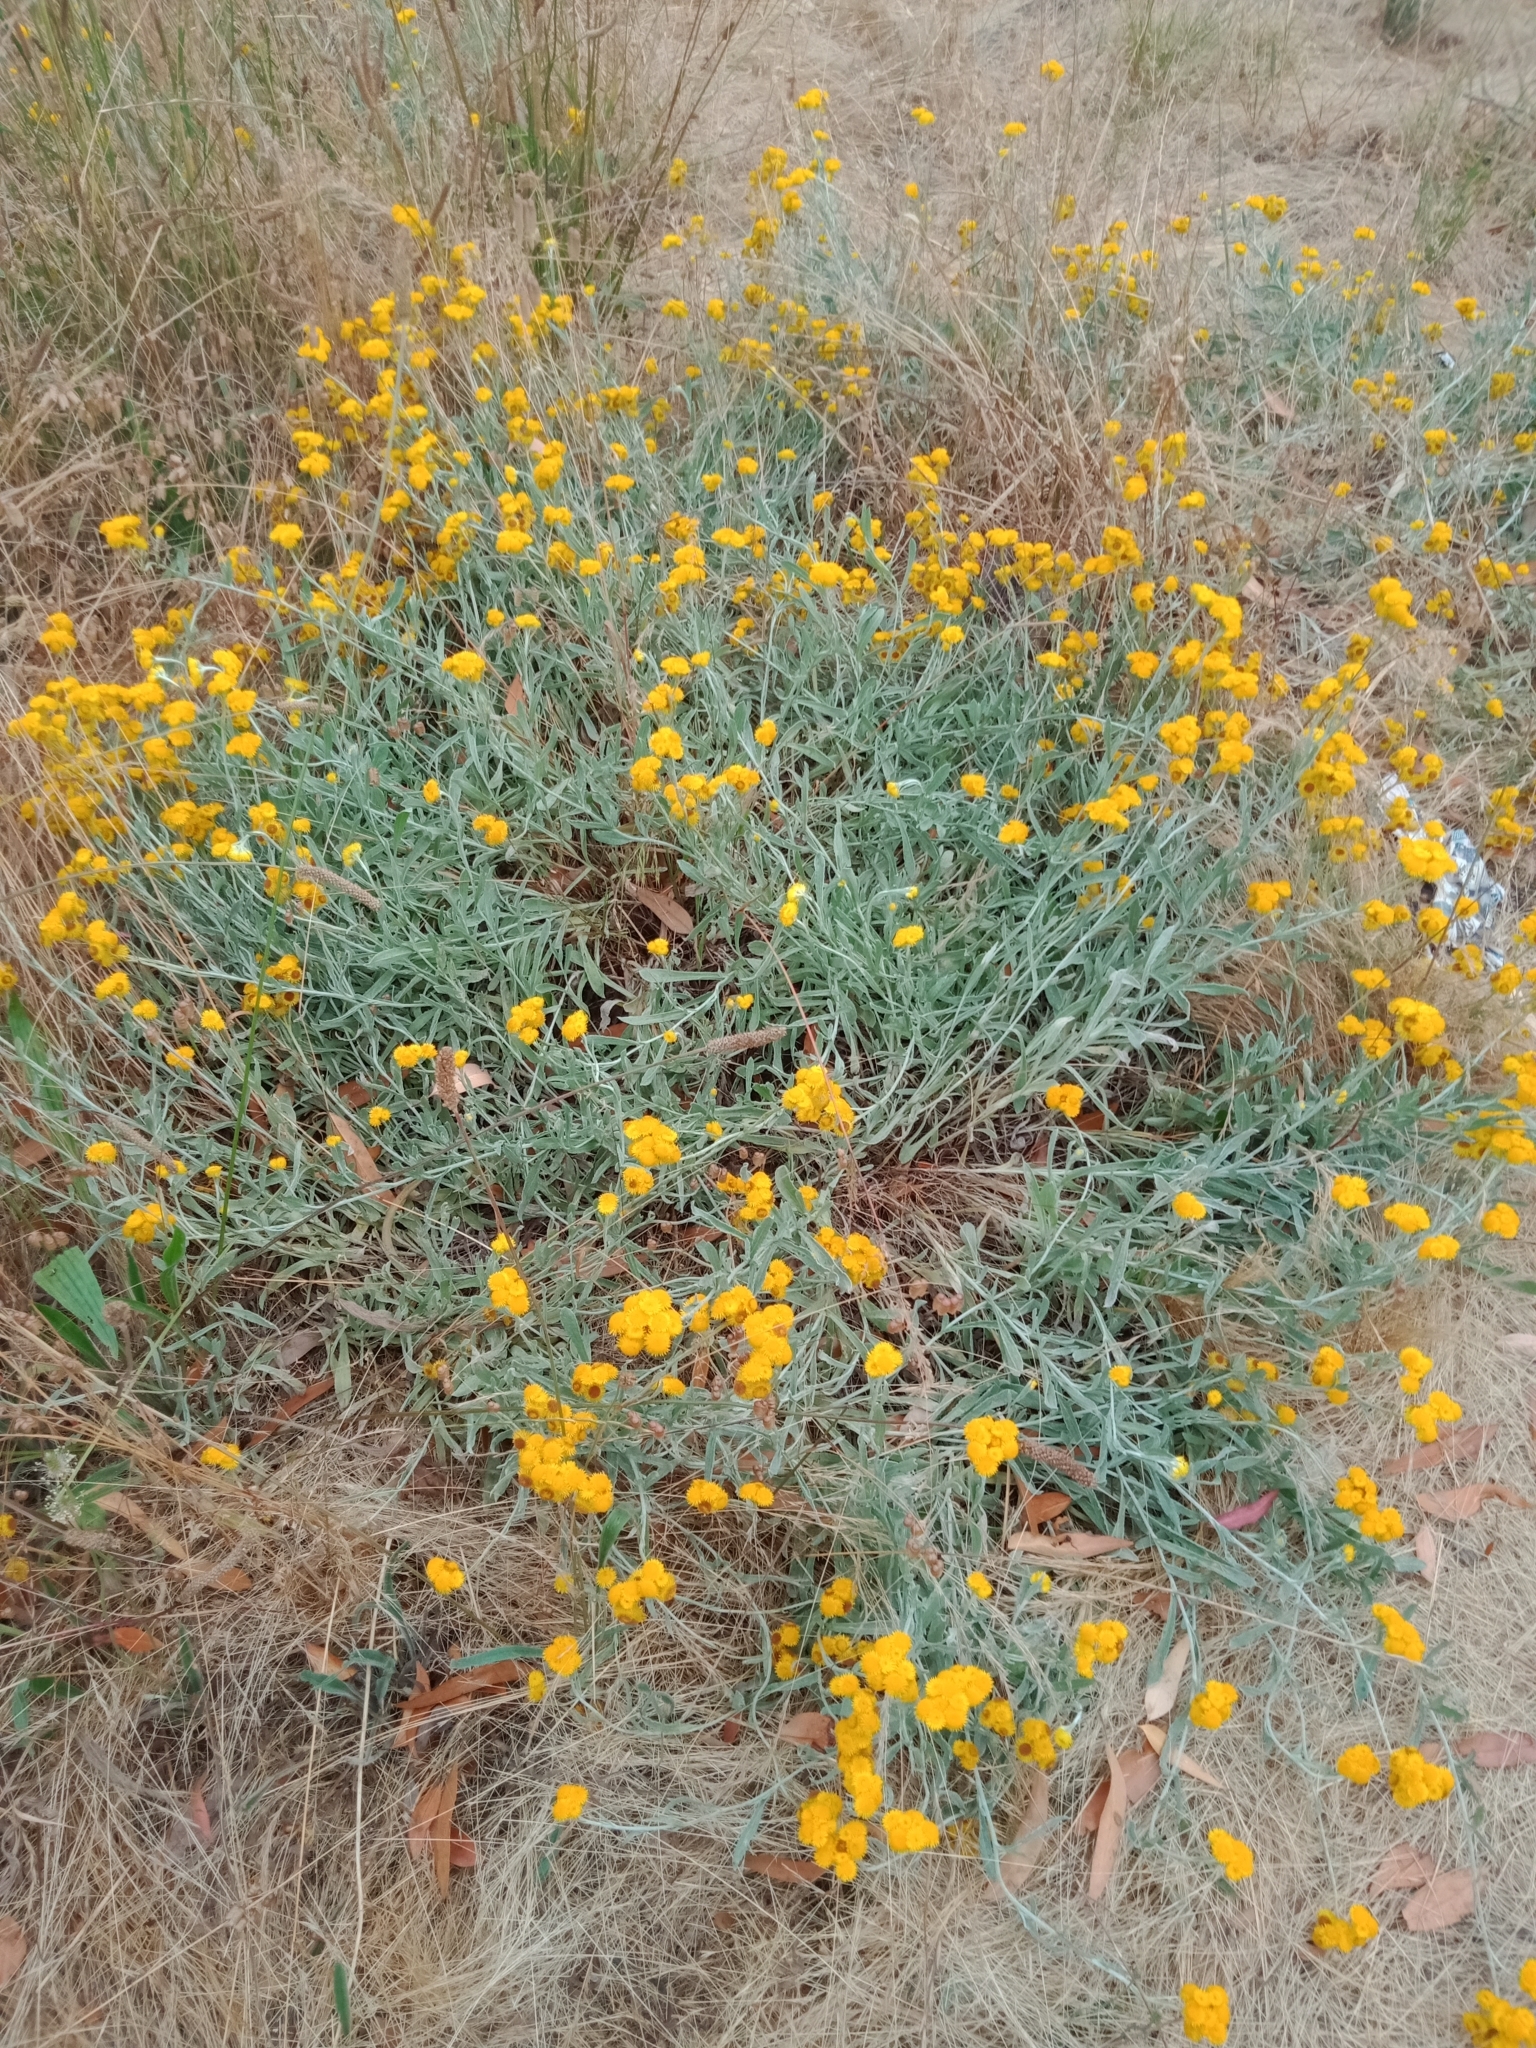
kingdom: Plantae
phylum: Tracheophyta
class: Magnoliopsida
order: Asterales
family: Asteraceae
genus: Chrysocephalum
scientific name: Chrysocephalum apiculatum
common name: Common everlasting
